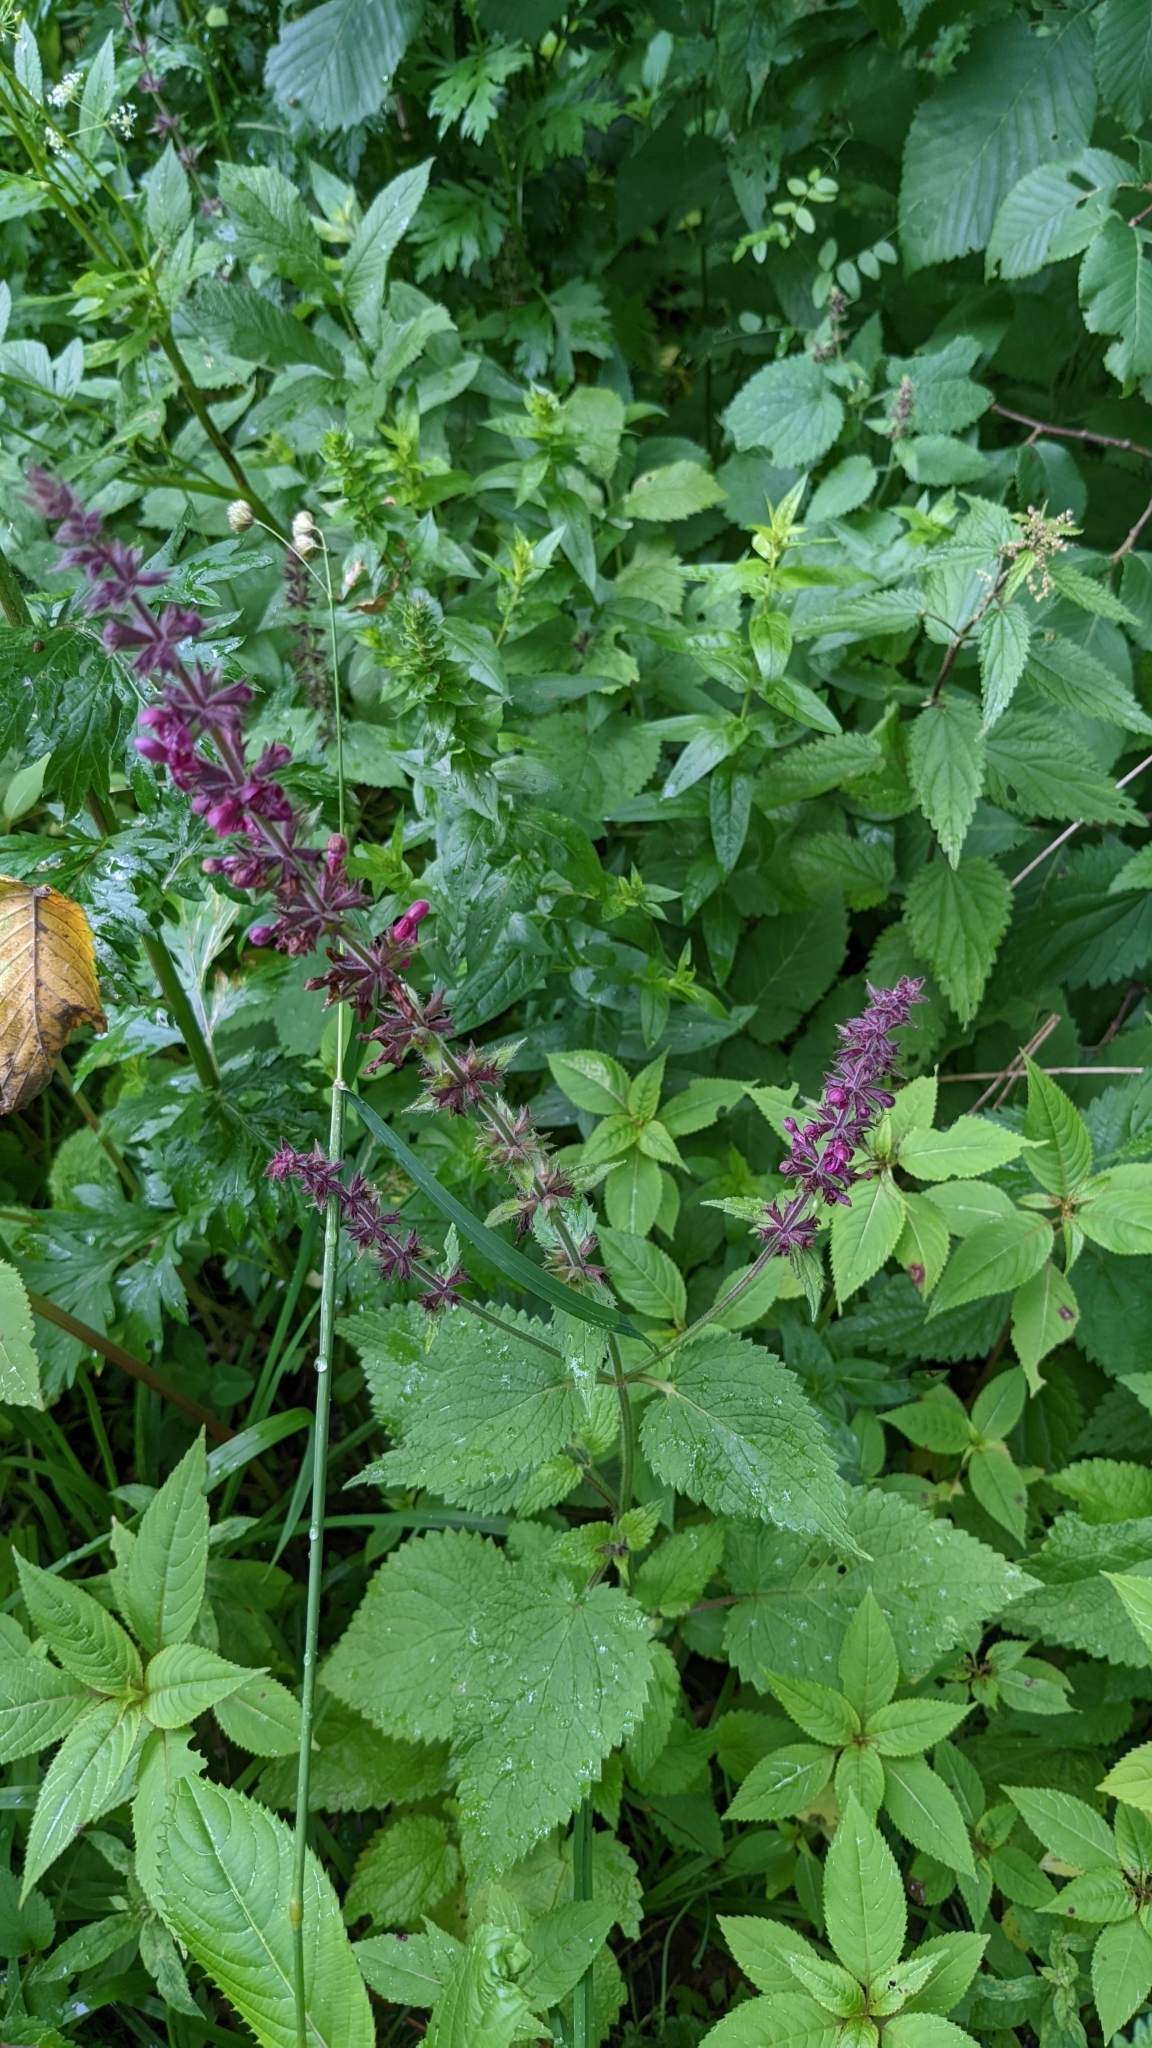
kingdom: Plantae
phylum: Tracheophyta
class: Magnoliopsida
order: Lamiales
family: Lamiaceae
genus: Stachys
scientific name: Stachys sylvatica
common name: Hedge woundwort
